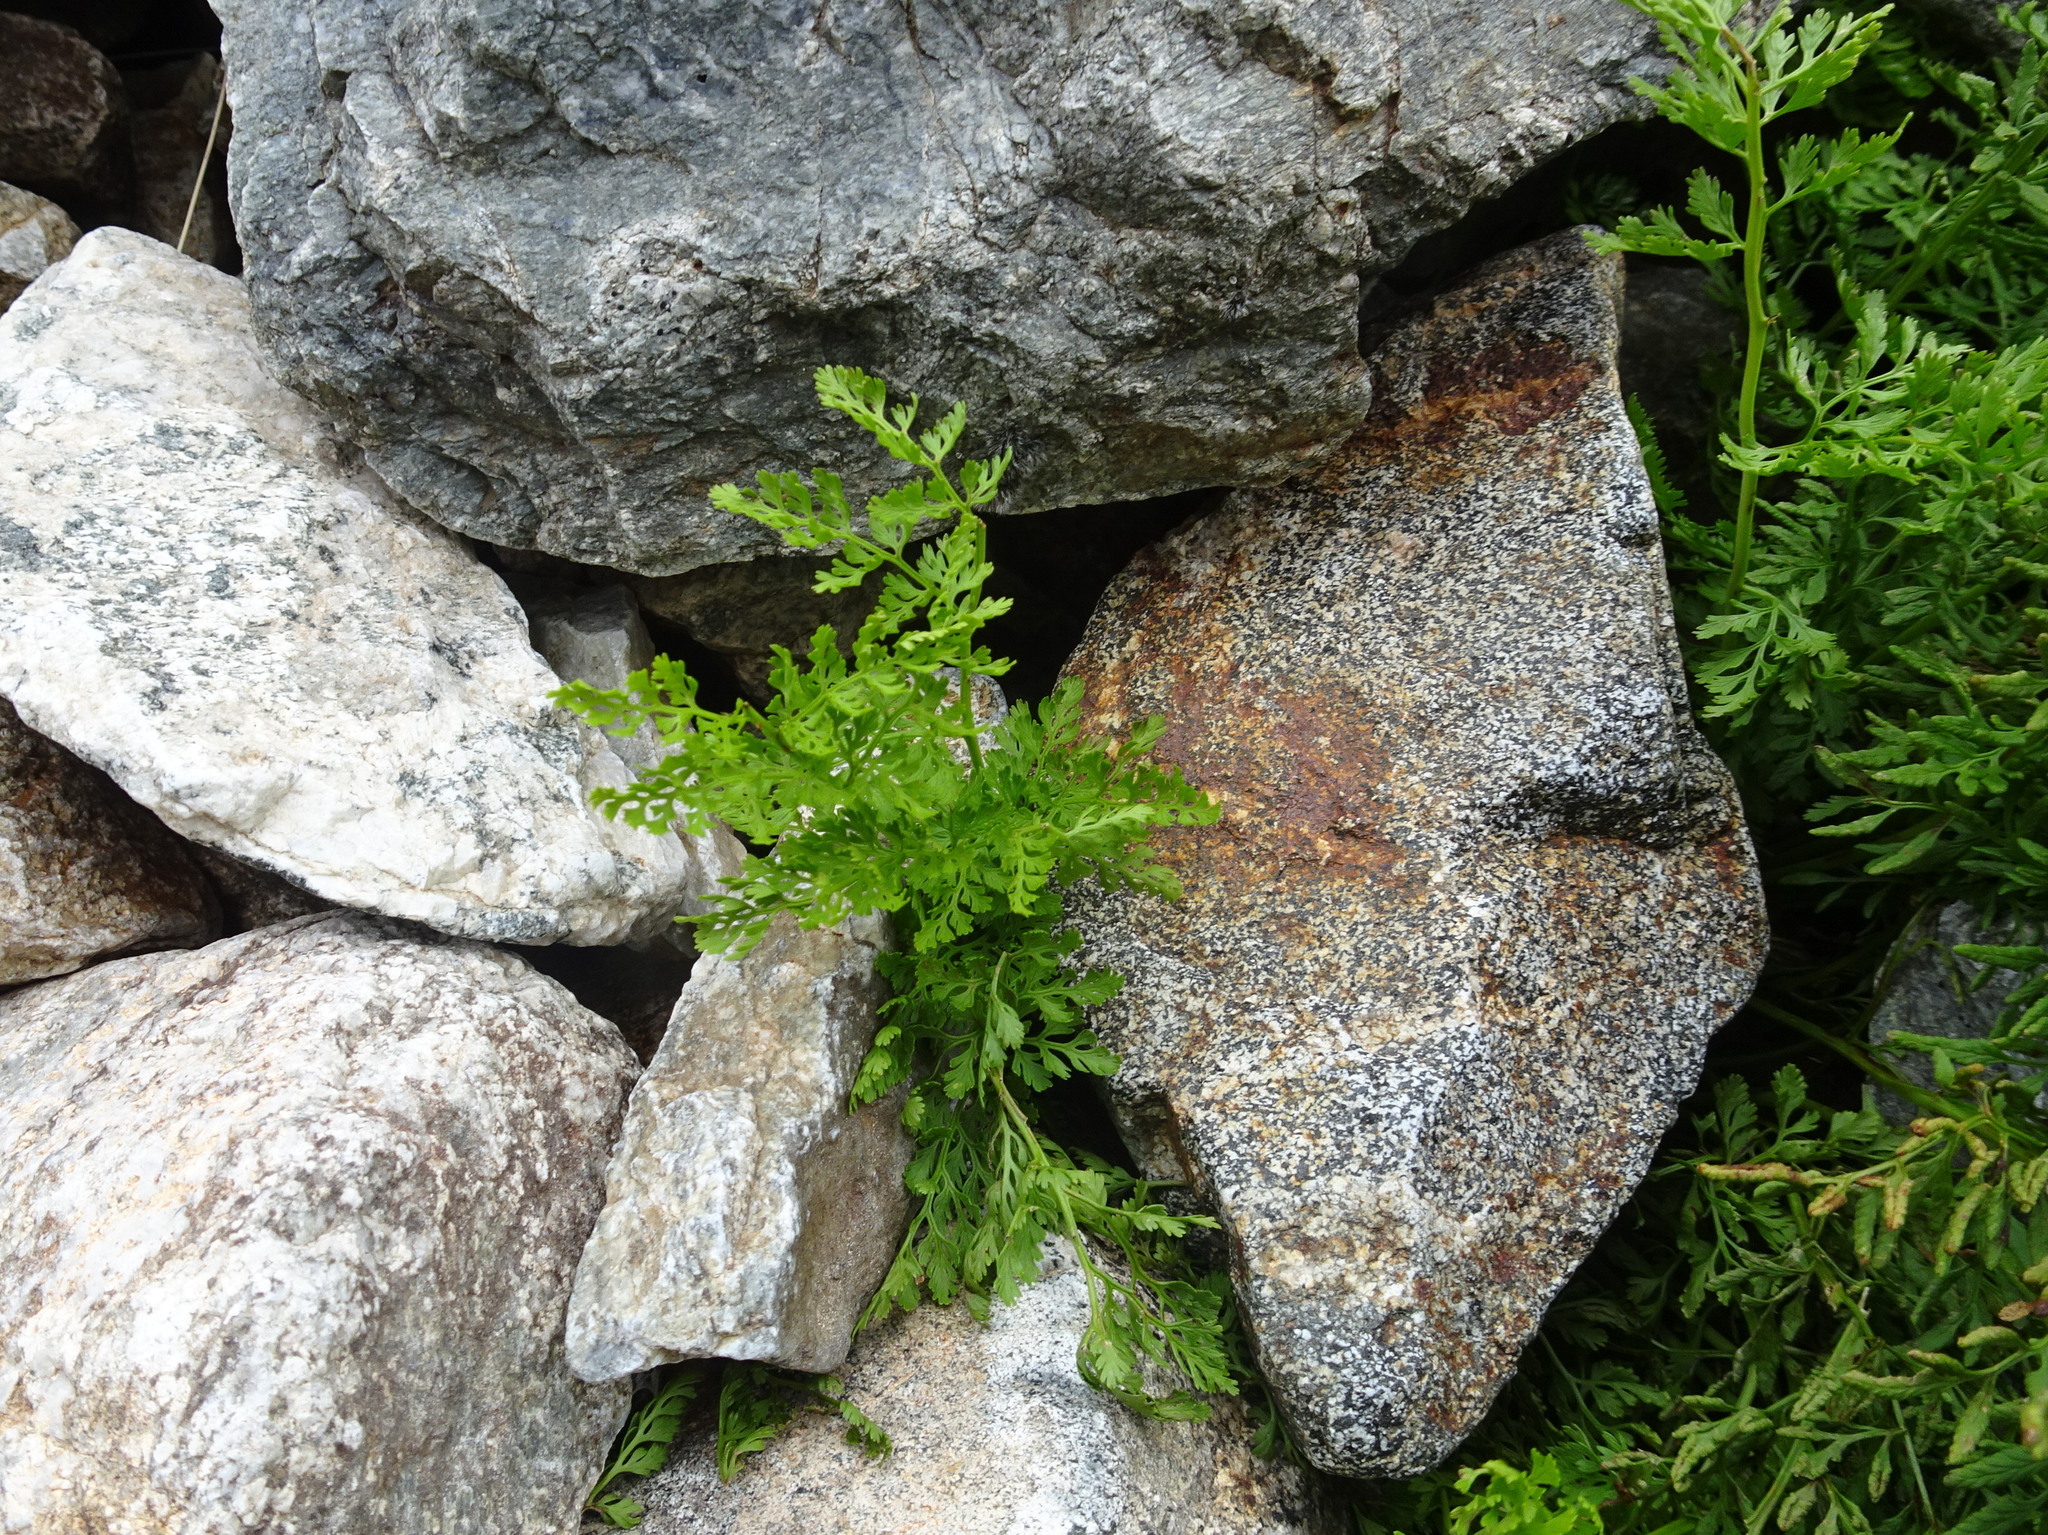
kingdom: Plantae
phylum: Tracheophyta
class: Polypodiopsida
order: Polypodiales
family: Pteridaceae
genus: Cryptogramma
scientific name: Cryptogramma crispa
